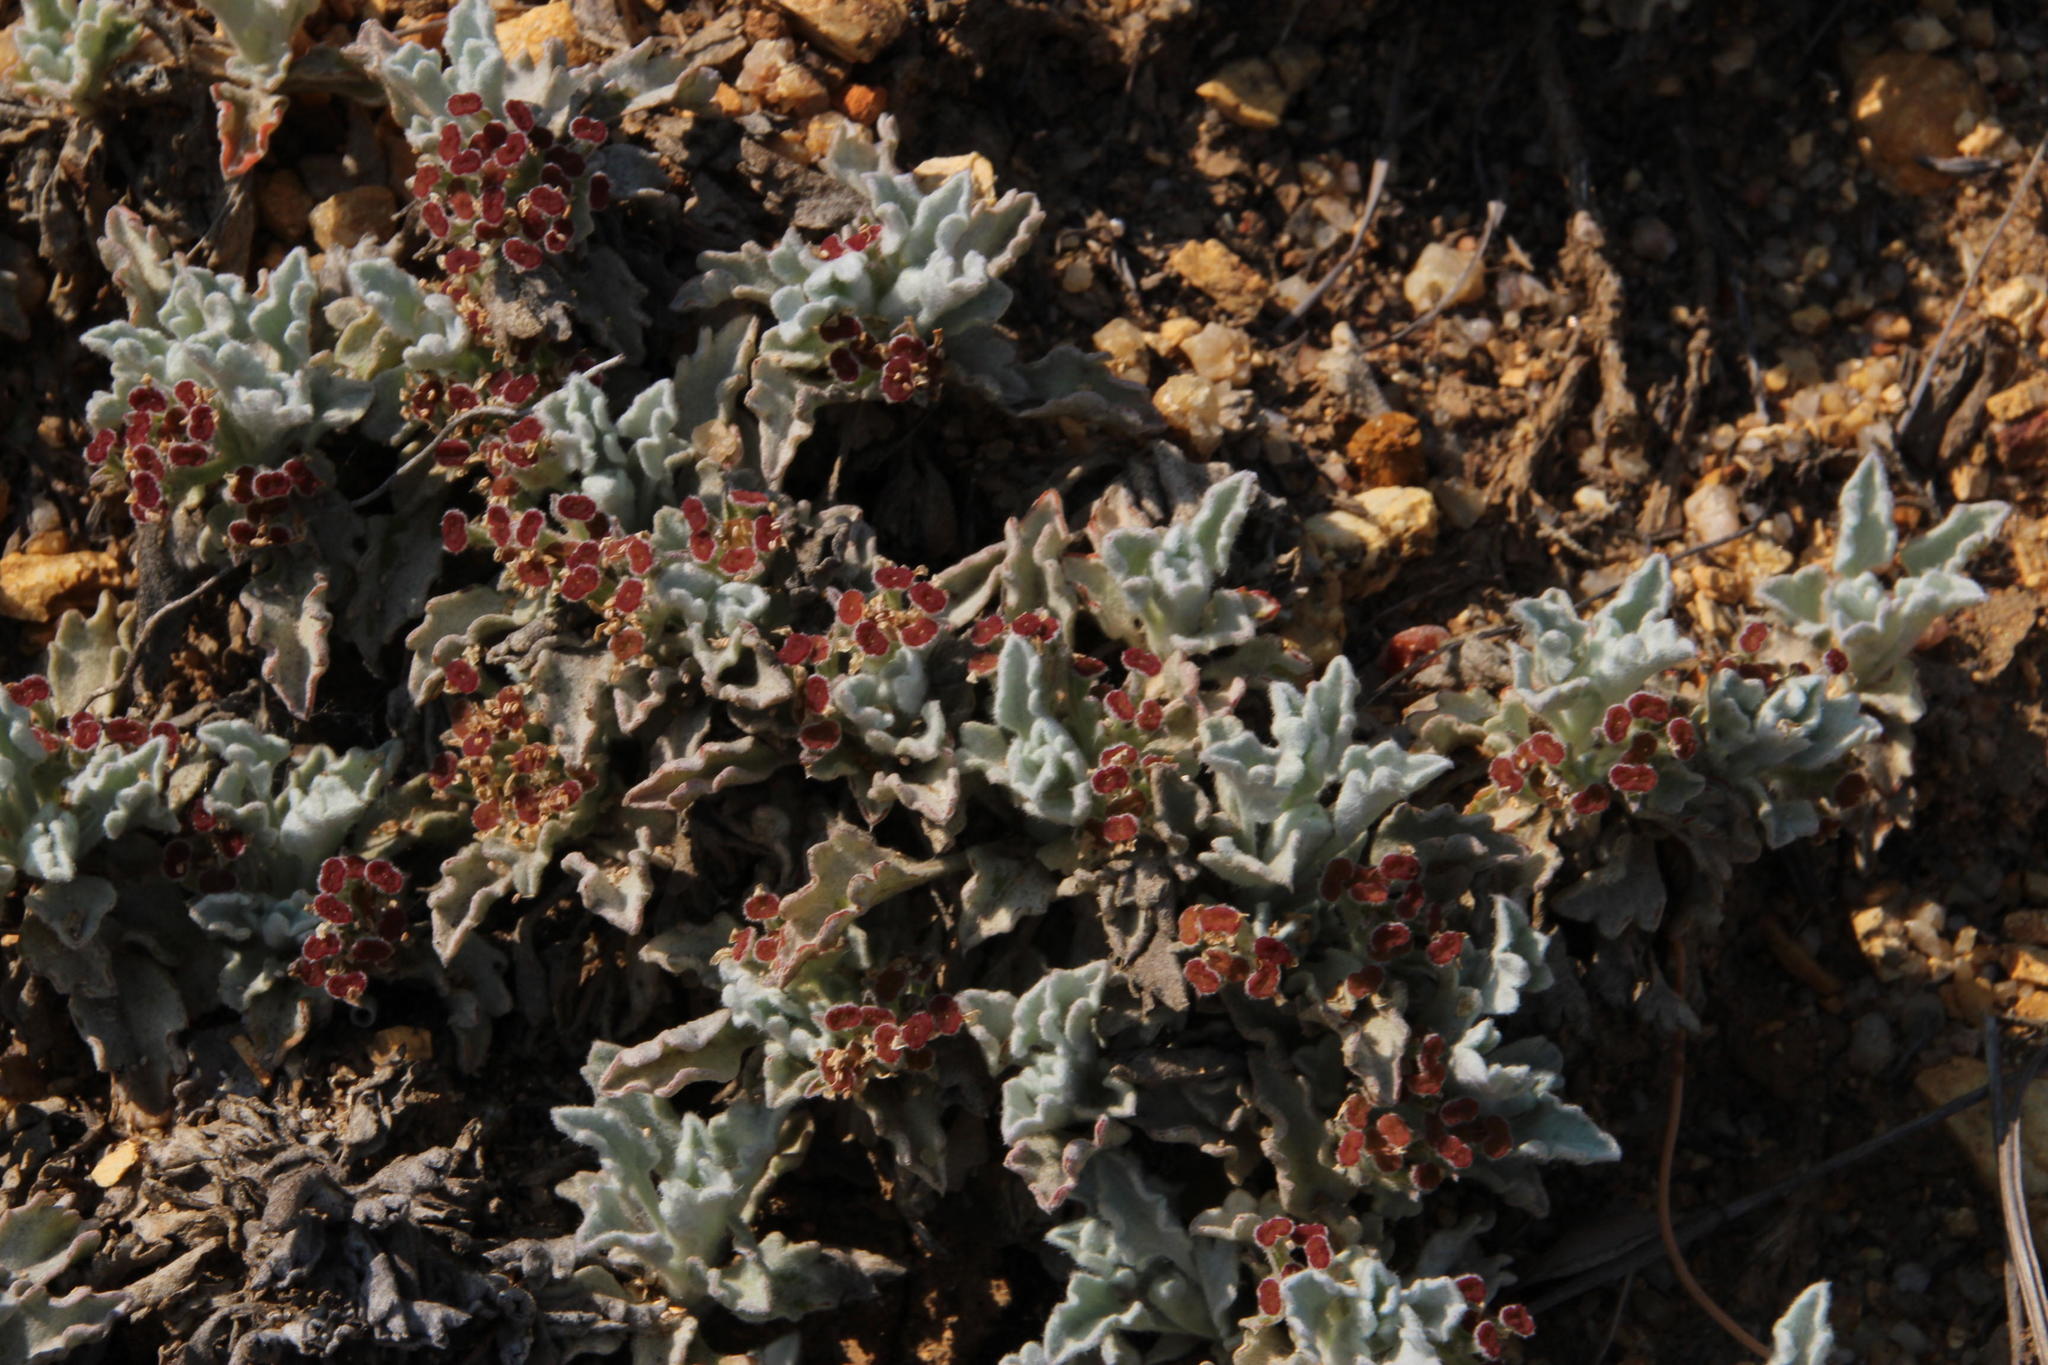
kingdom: Plantae
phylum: Tracheophyta
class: Magnoliopsida
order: Apiales
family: Apiaceae
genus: Centella
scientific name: Centella capensis
